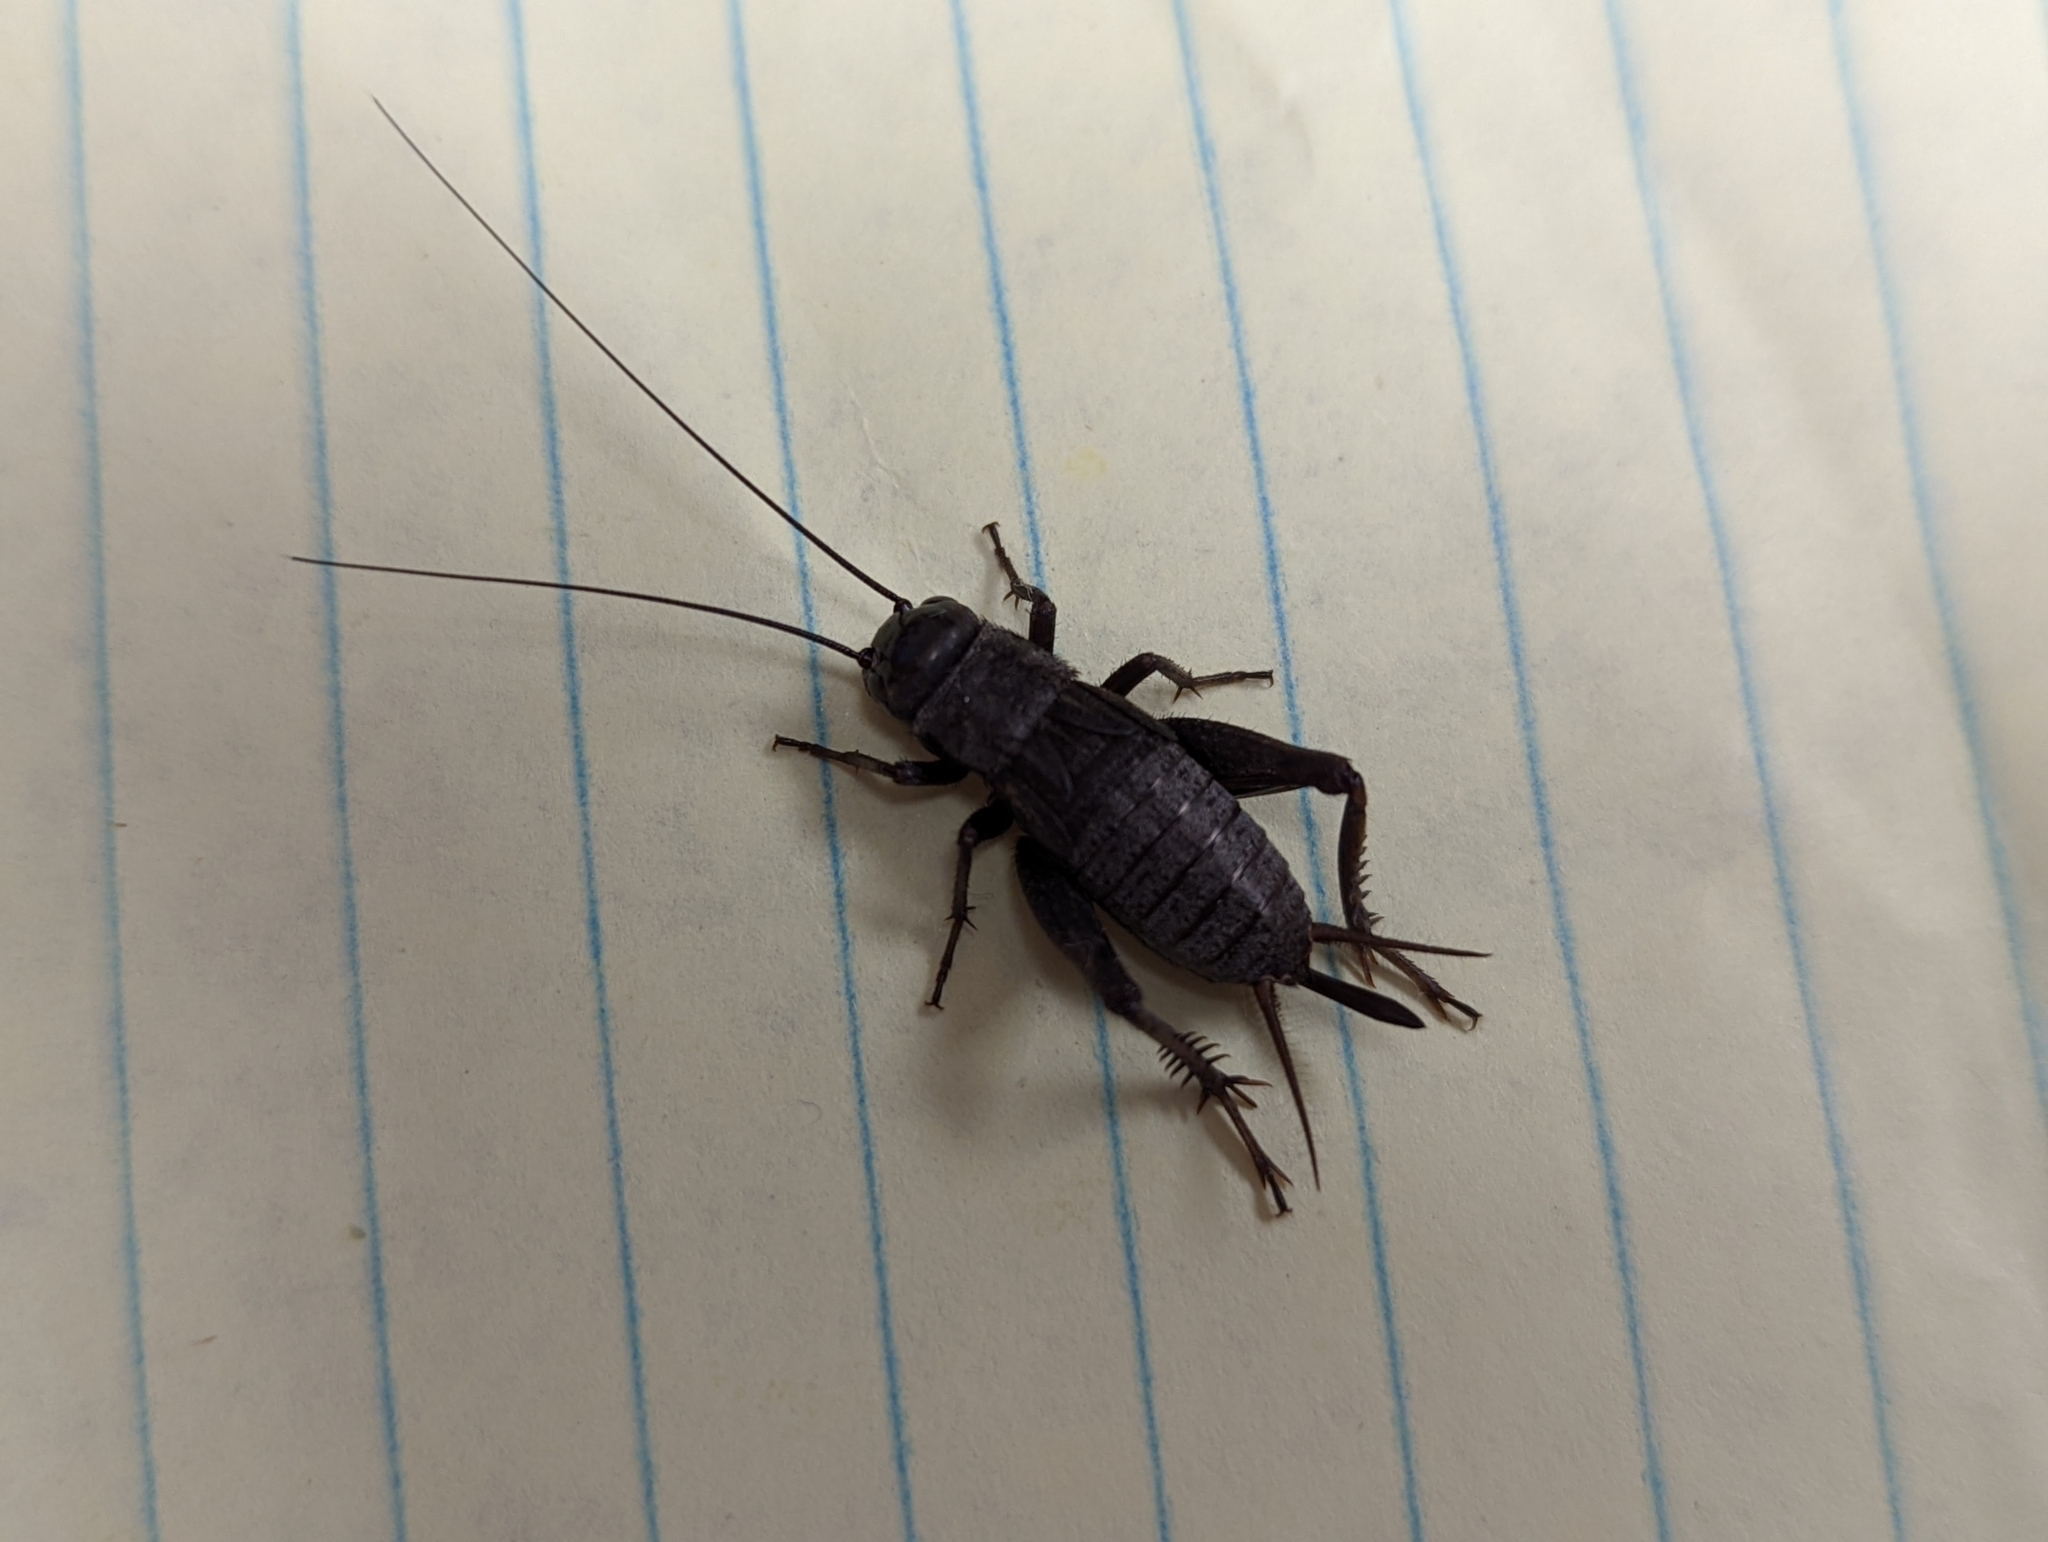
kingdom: Animalia
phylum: Arthropoda
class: Insecta
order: Orthoptera
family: Gryllidae
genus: Gryllus
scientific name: Gryllus pennsylvanicus
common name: Fall field cricket
